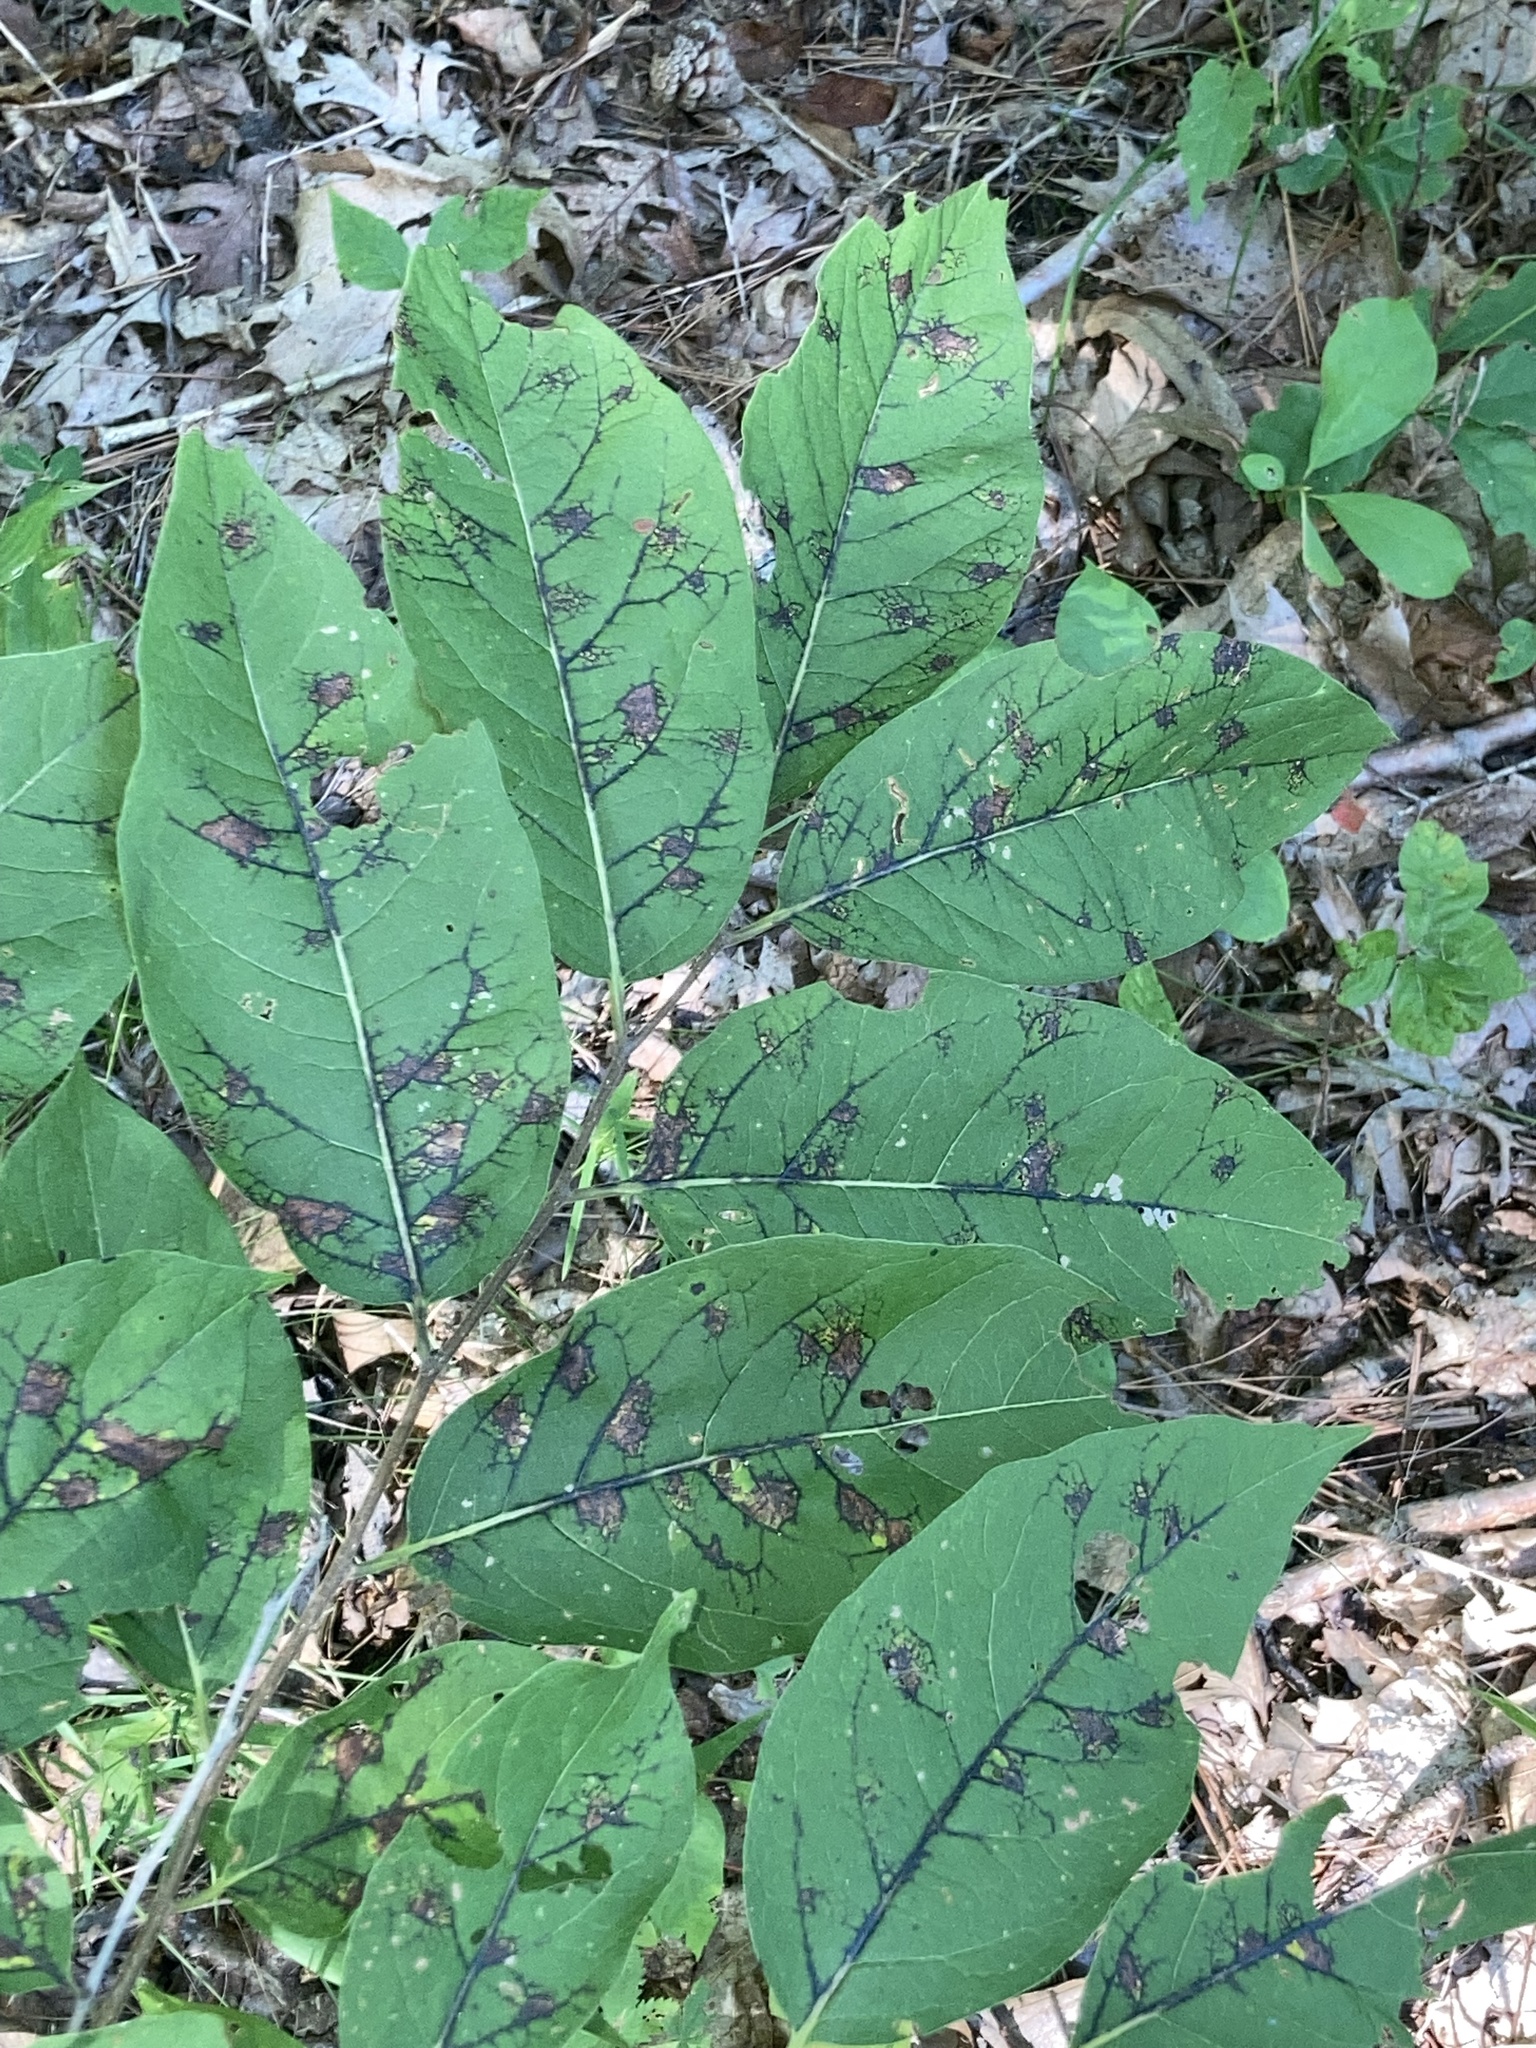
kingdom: Animalia
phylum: Arthropoda
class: Insecta
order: Orthoptera
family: Acrididae
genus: Syrbula
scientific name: Syrbula admirabilis
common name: Handsome grasshopper
